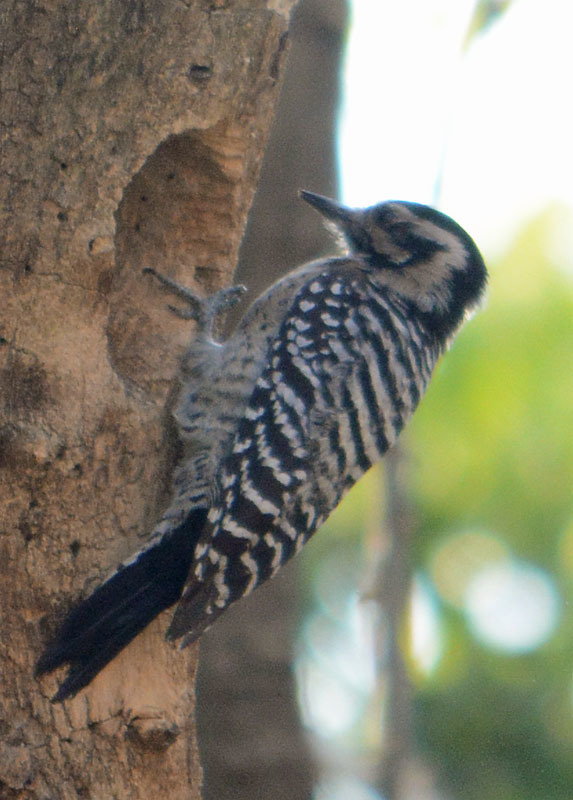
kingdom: Animalia
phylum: Chordata
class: Aves
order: Piciformes
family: Picidae
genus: Dryobates
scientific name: Dryobates scalaris
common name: Ladder-backed woodpecker
